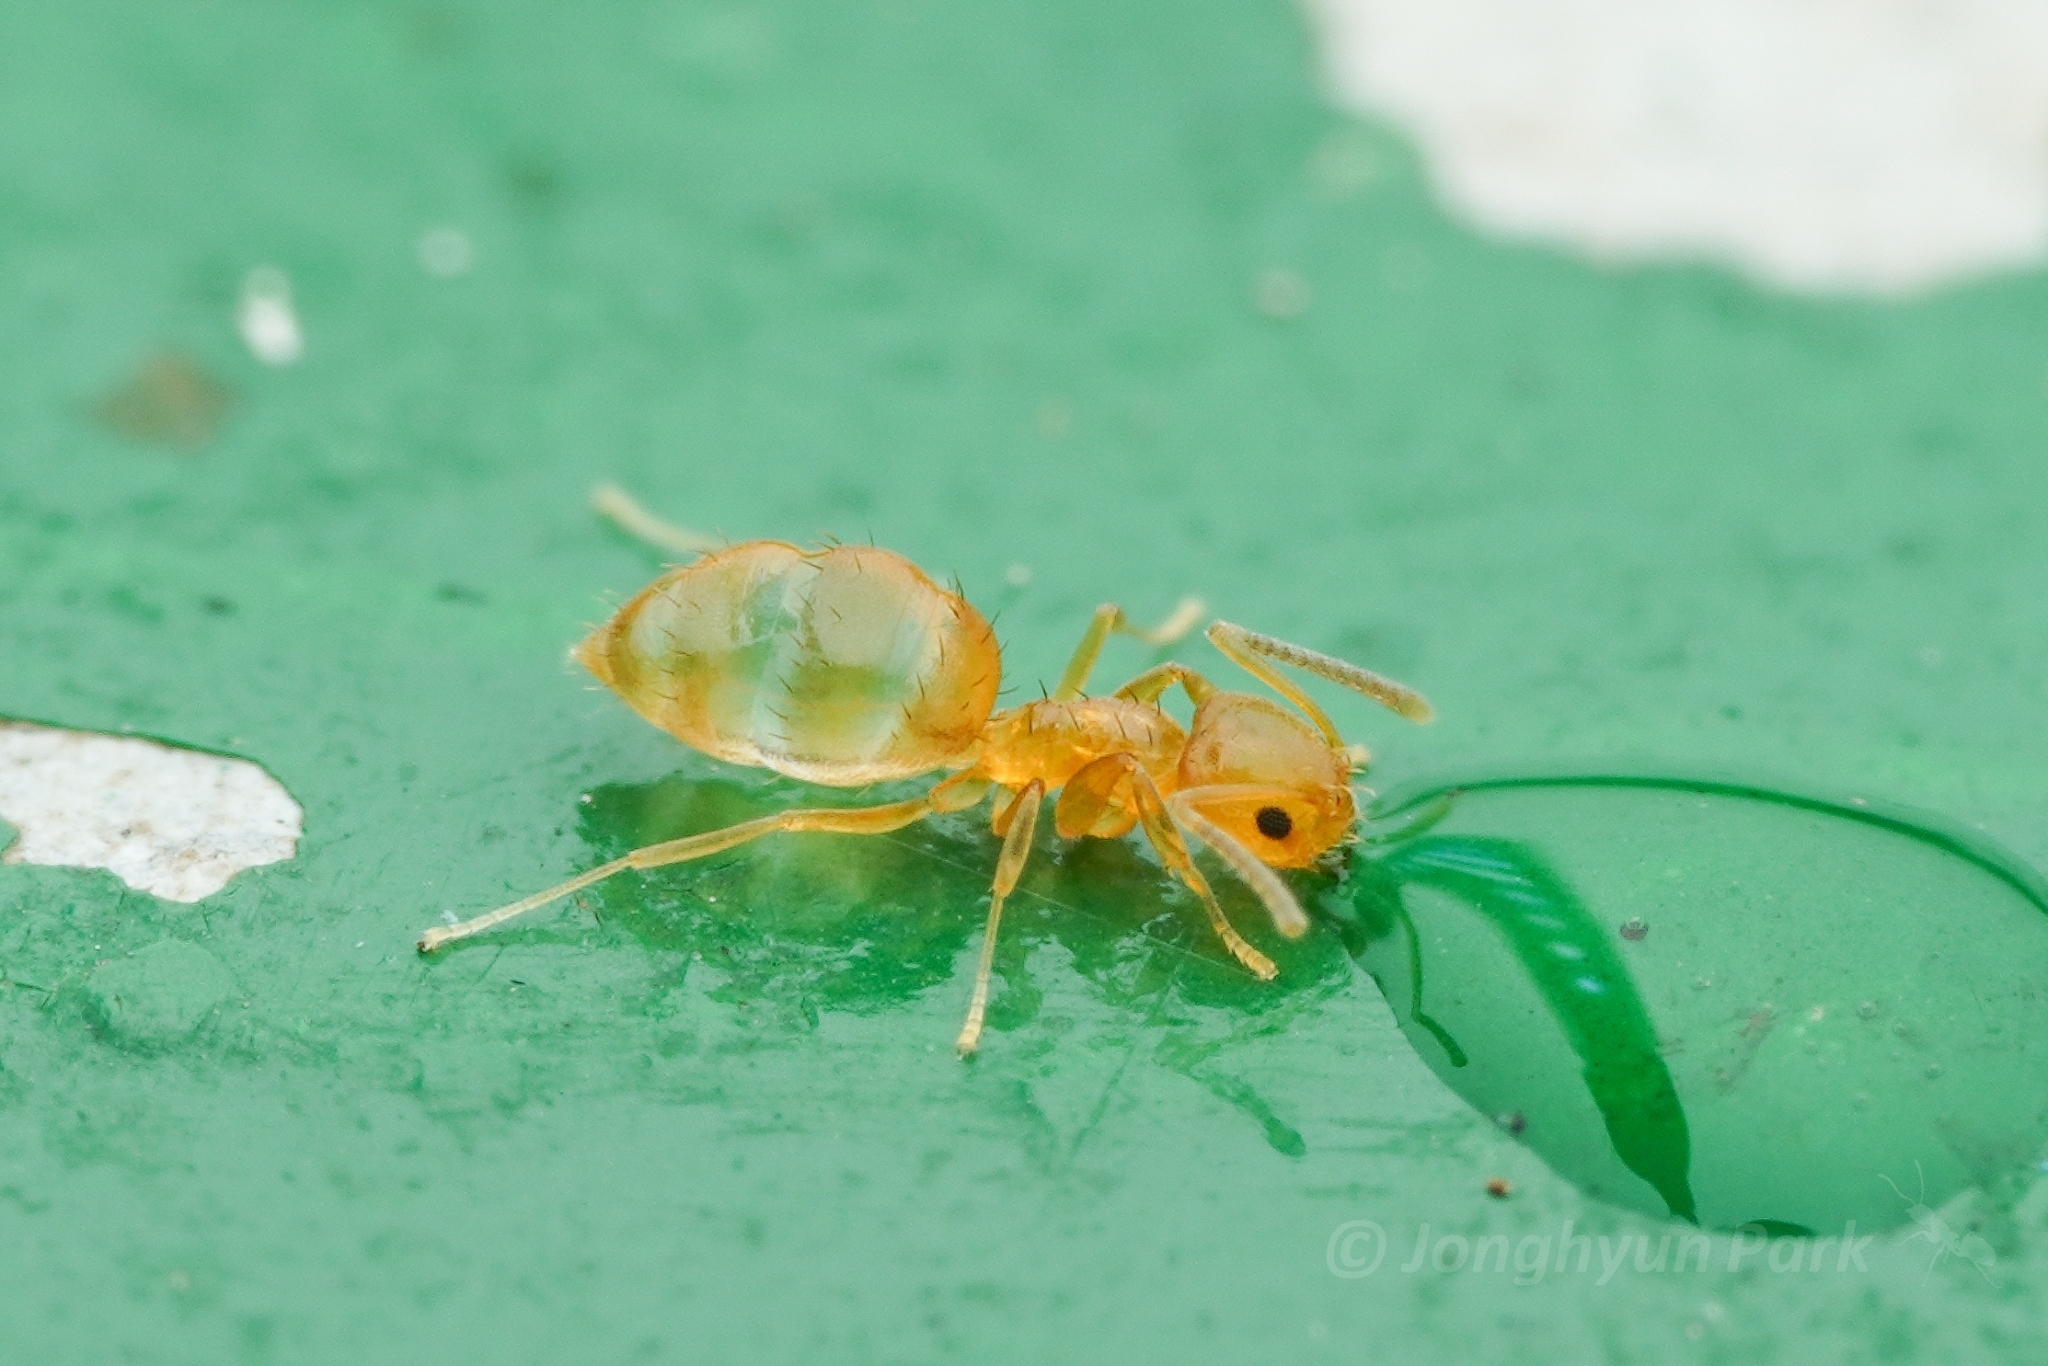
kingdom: Animalia
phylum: Arthropoda
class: Insecta
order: Hymenoptera
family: Formicidae
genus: Paraparatrechina
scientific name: Paraparatrechina sauteri
